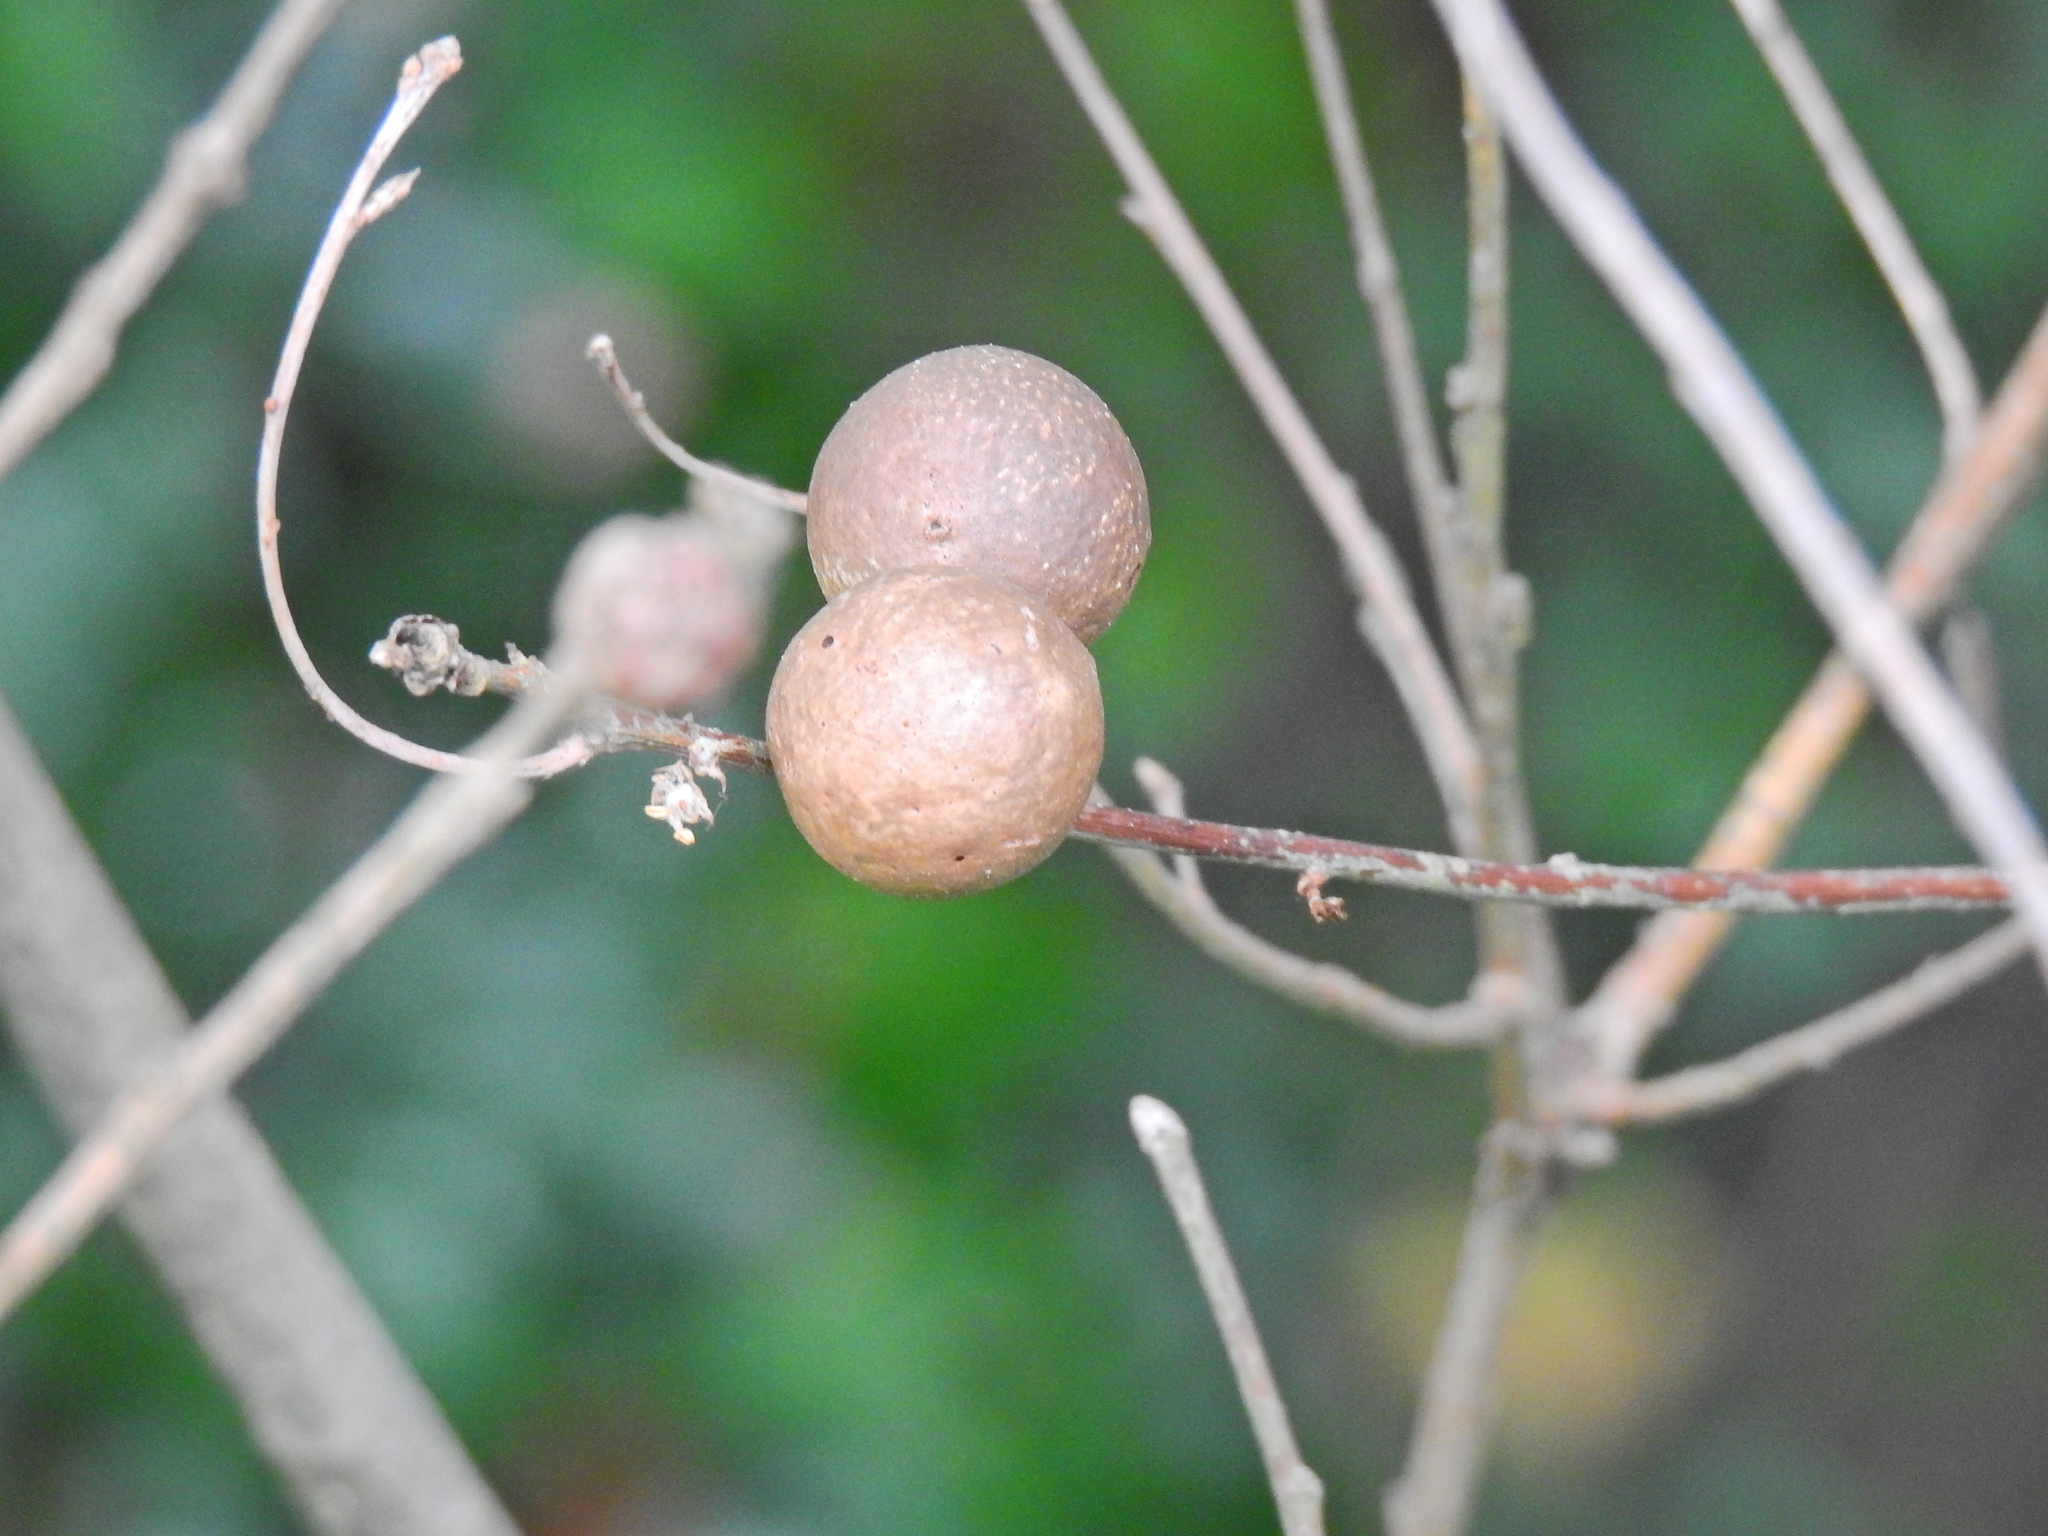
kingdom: Animalia
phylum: Arthropoda
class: Insecta
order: Hymenoptera
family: Cynipidae
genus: Andricus
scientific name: Andricus kollari
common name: Marble gall
